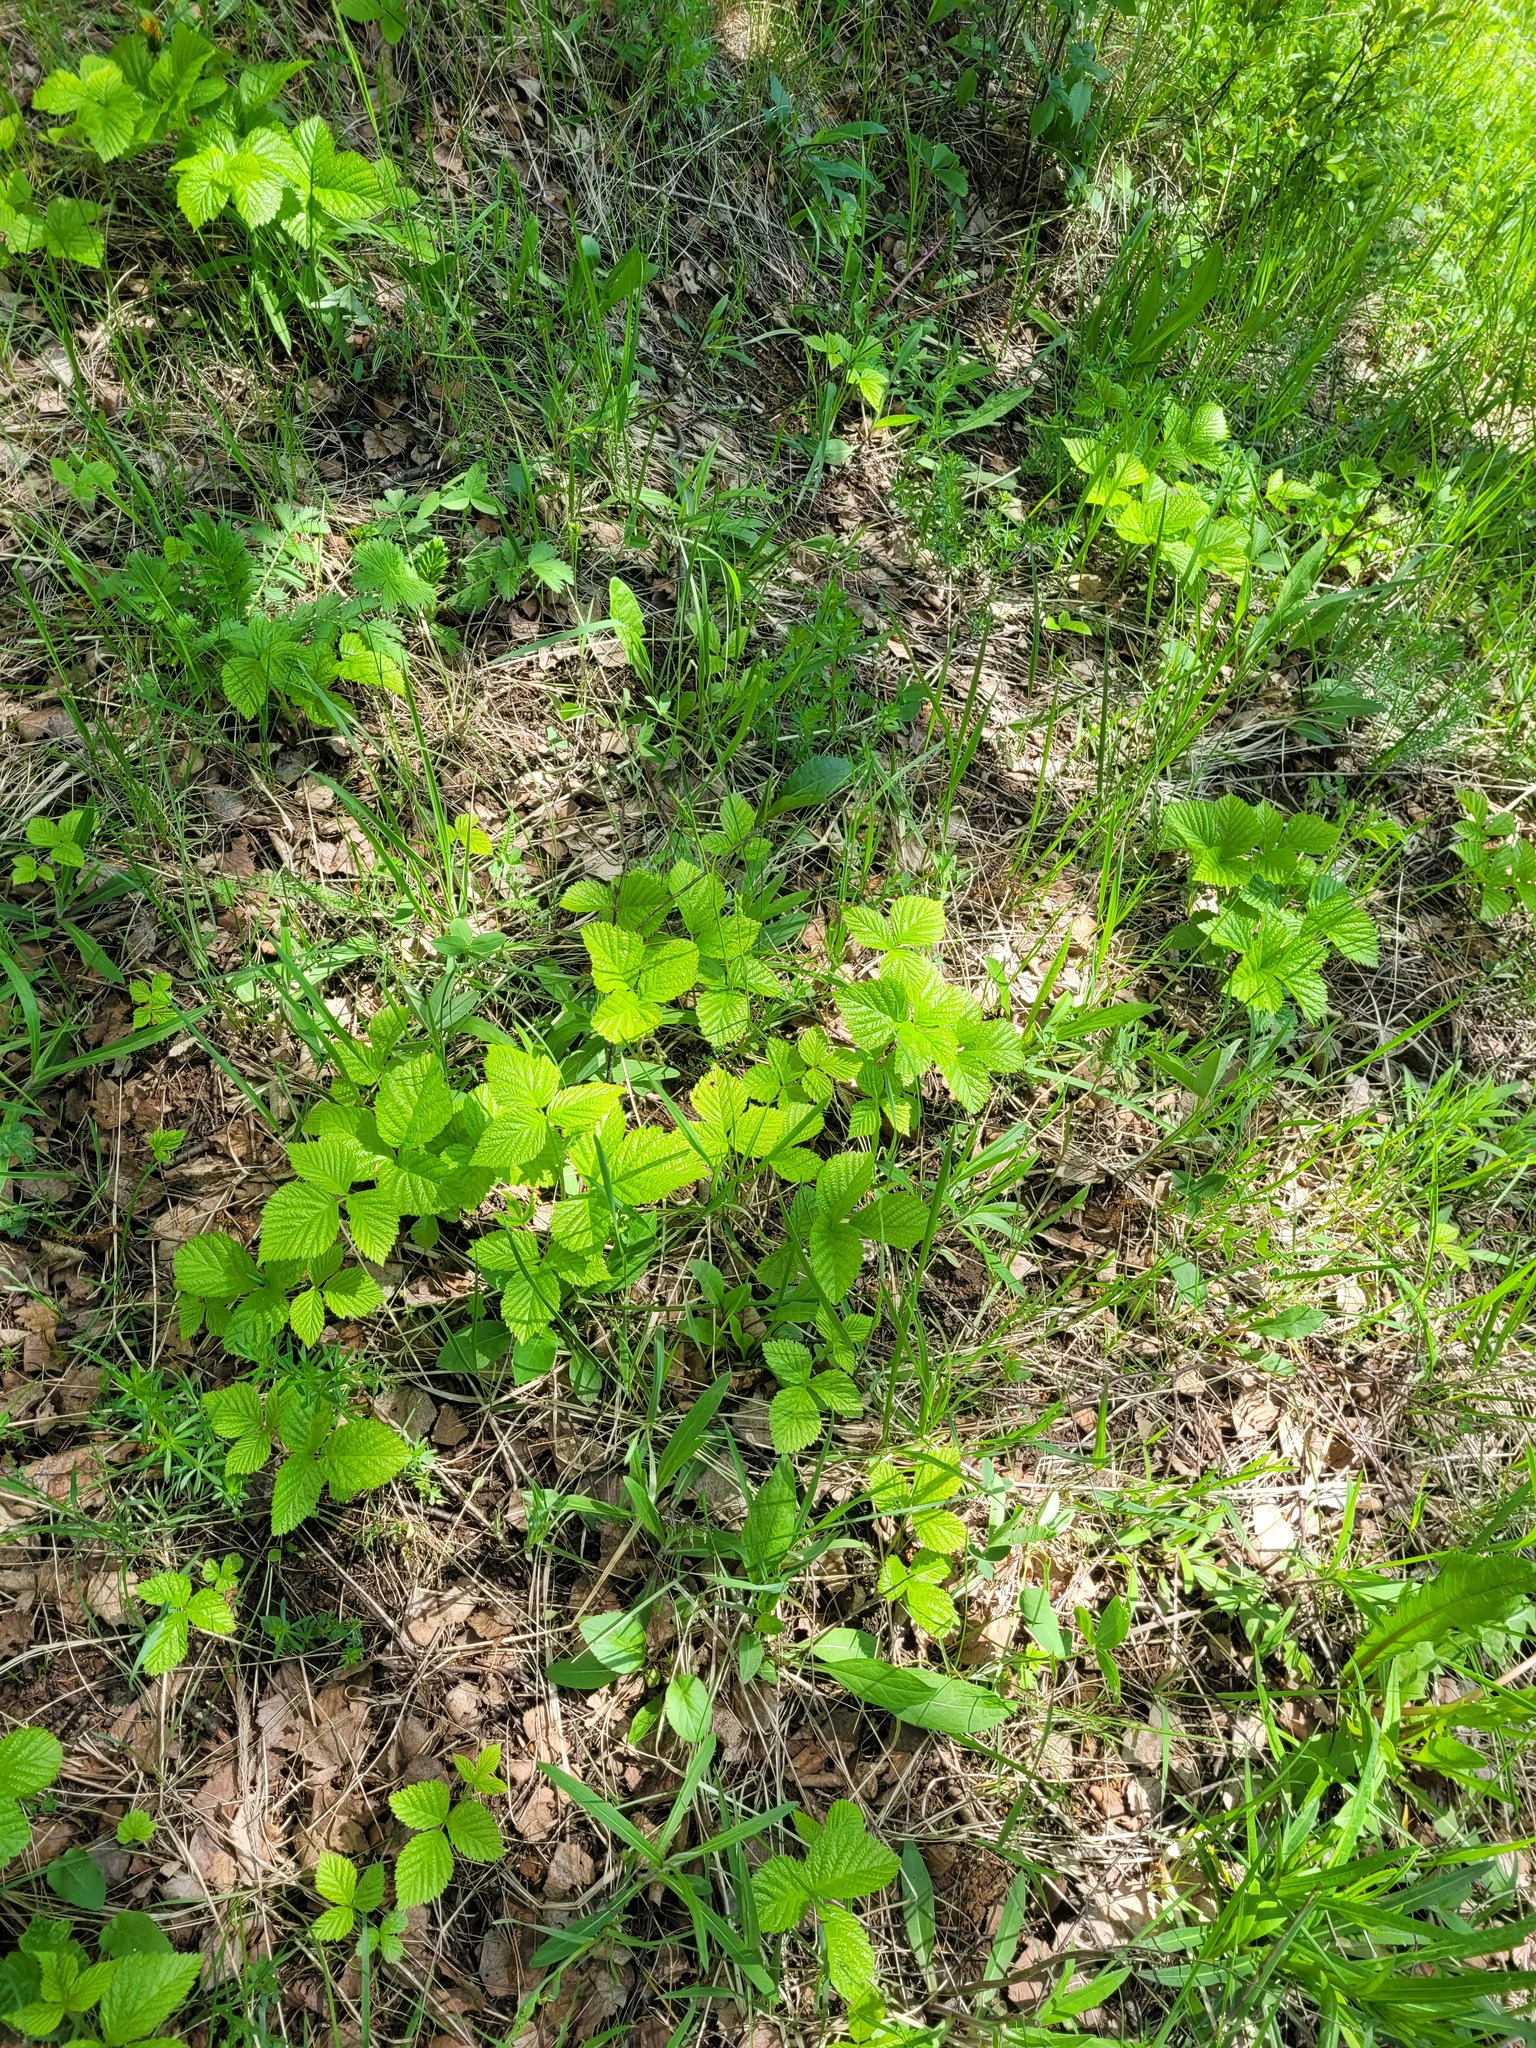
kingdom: Plantae
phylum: Tracheophyta
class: Magnoliopsida
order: Rosales
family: Rosaceae
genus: Rubus
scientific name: Rubus saxatilis
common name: Stone bramble
